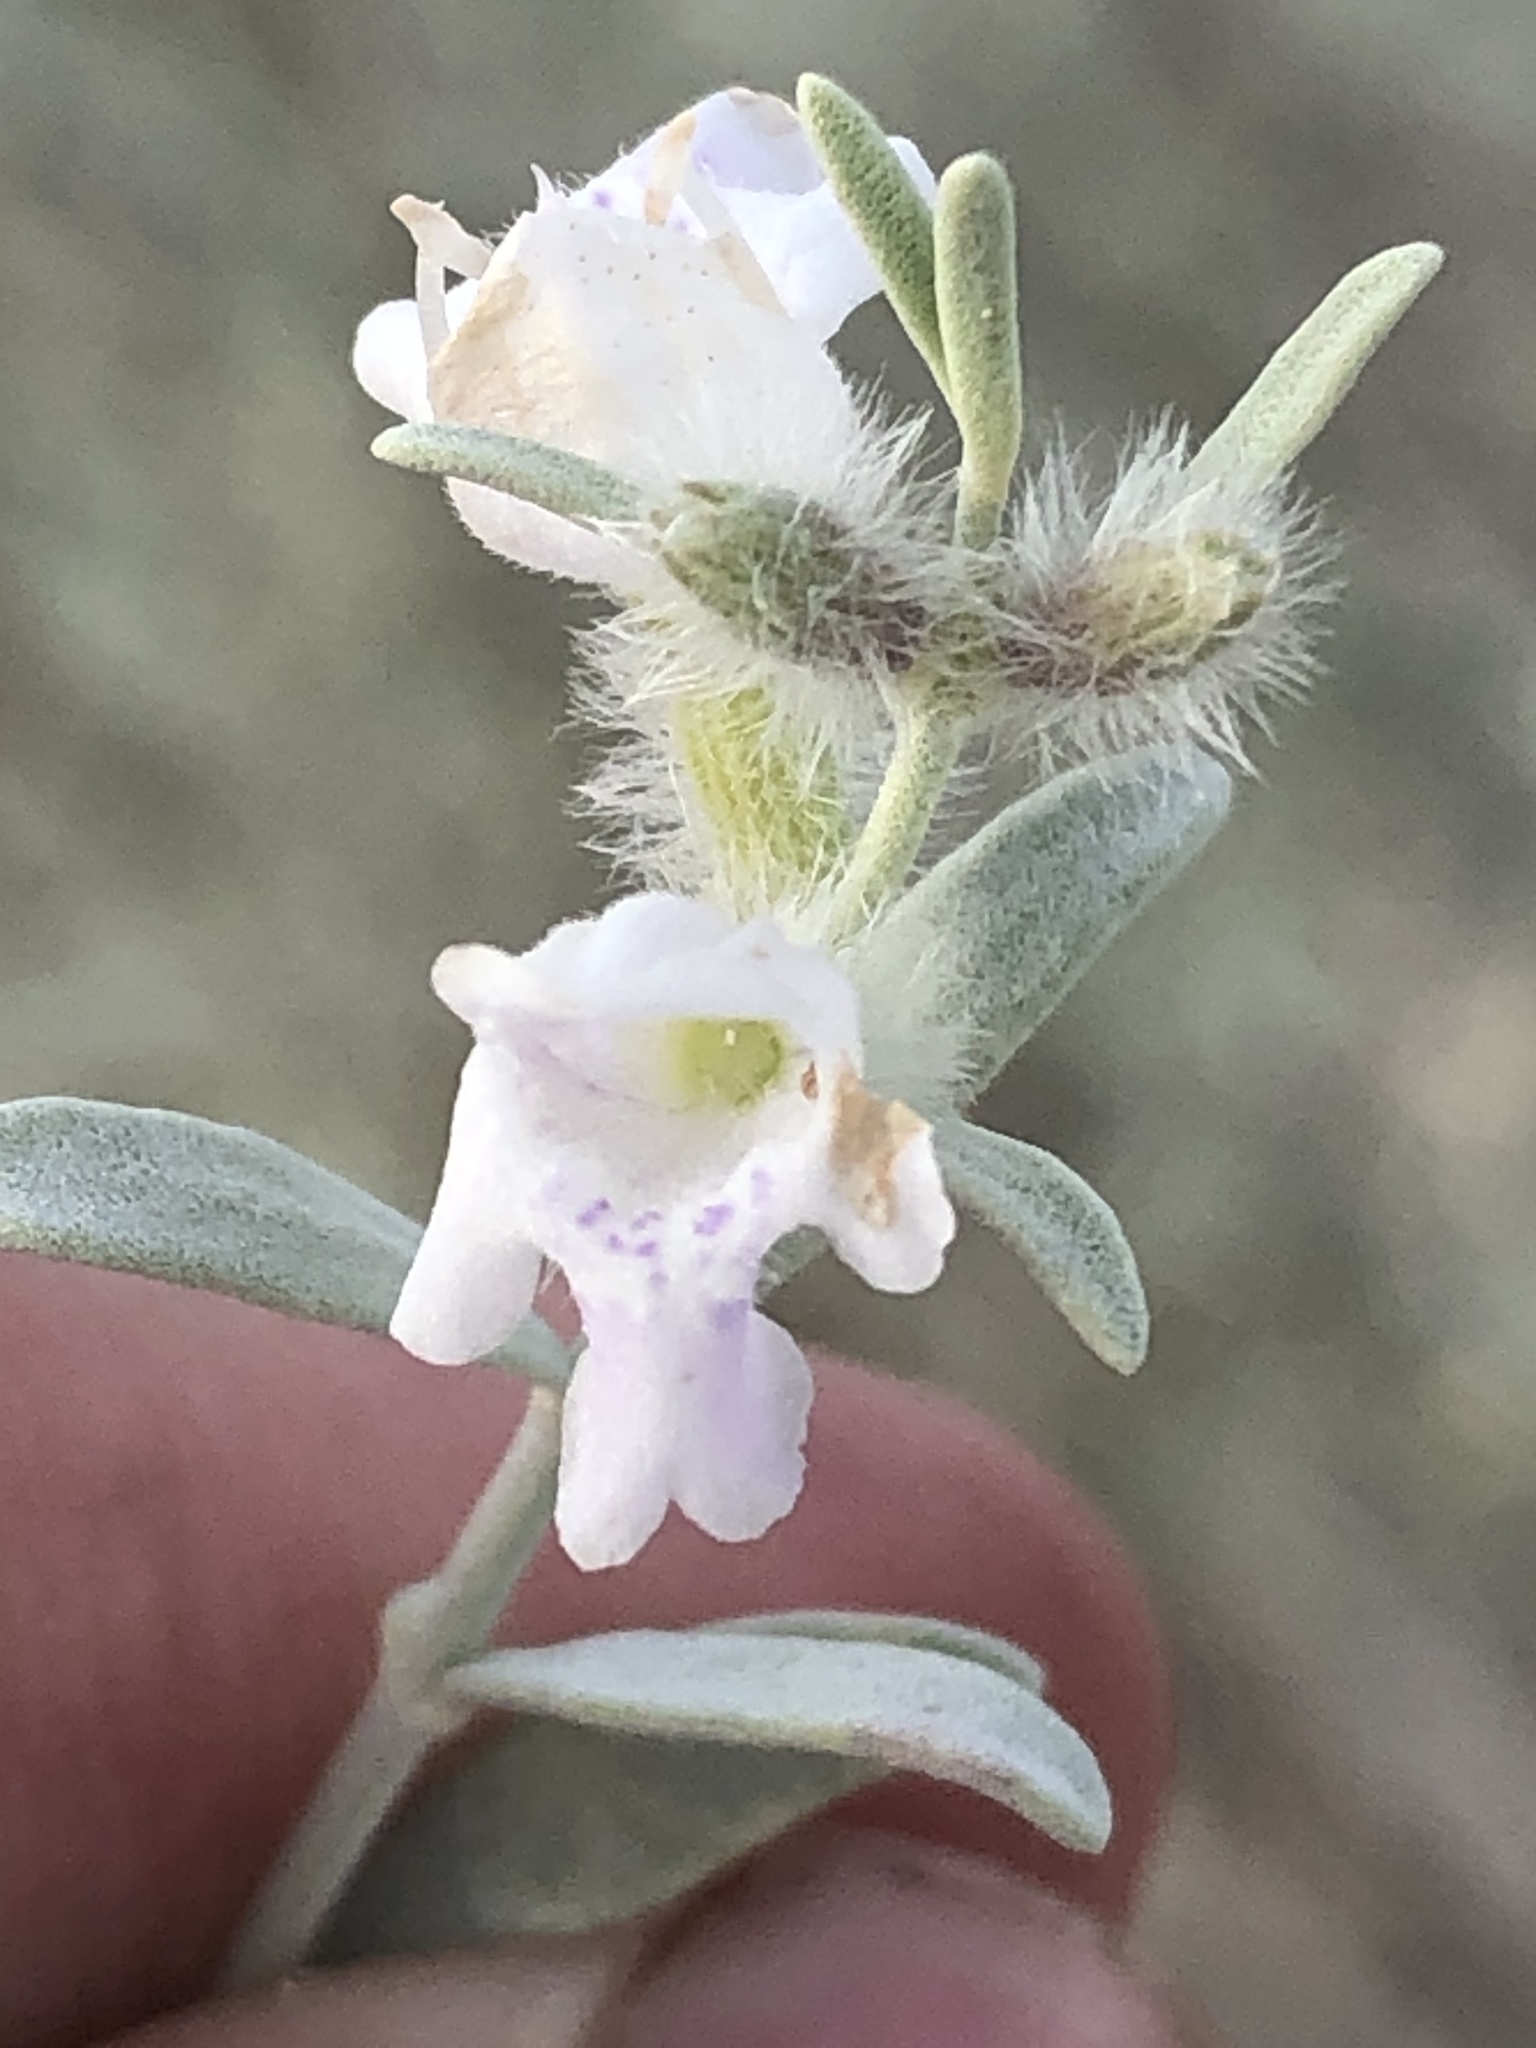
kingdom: Plantae
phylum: Tracheophyta
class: Magnoliopsida
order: Lamiales
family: Lamiaceae
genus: Poliomintha
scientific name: Poliomintha incana
